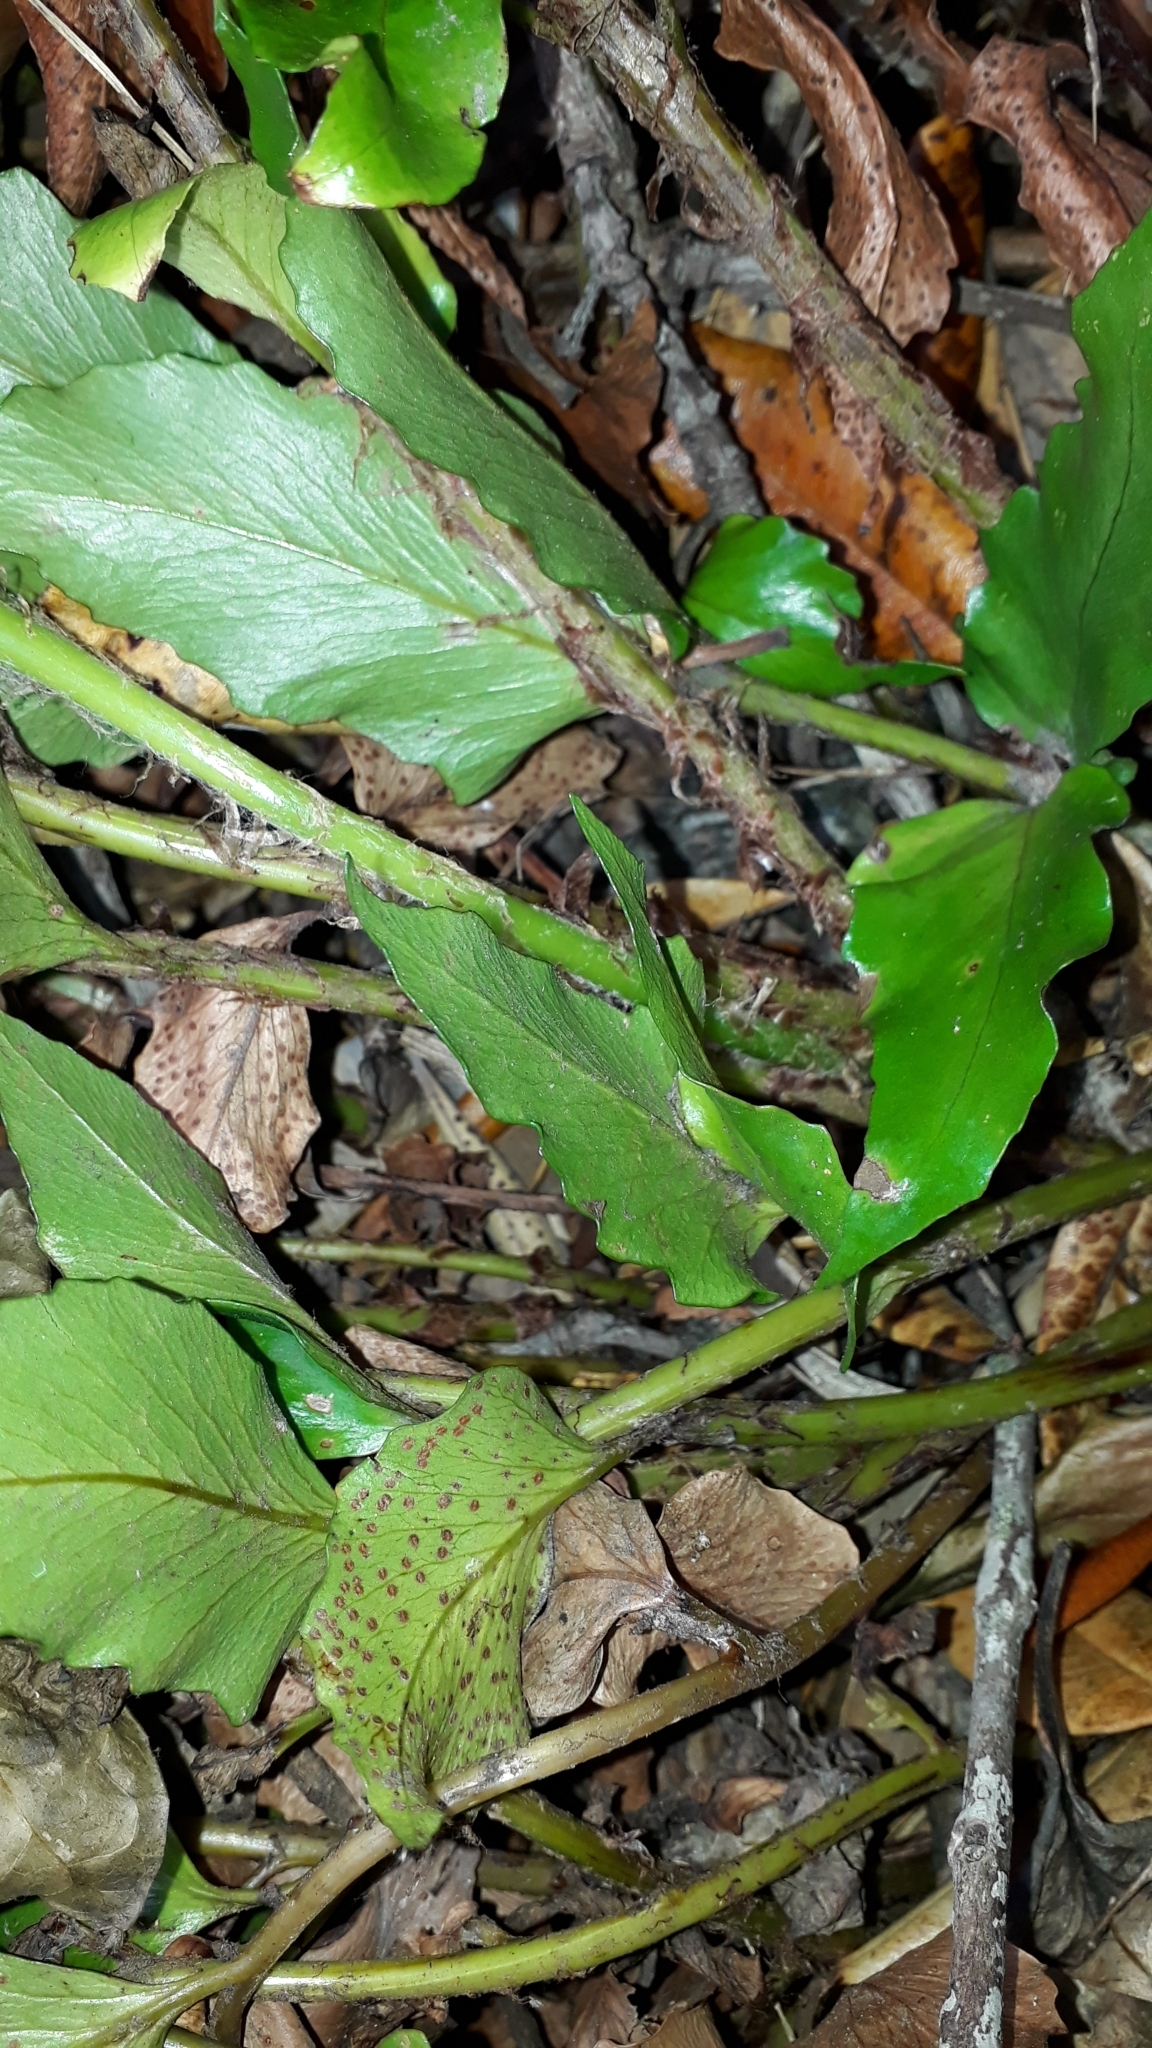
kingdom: Plantae
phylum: Tracheophyta
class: Polypodiopsida
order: Polypodiales
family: Dryopteridaceae
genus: Cyrtomium
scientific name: Cyrtomium falcatum
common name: House holly-fern
